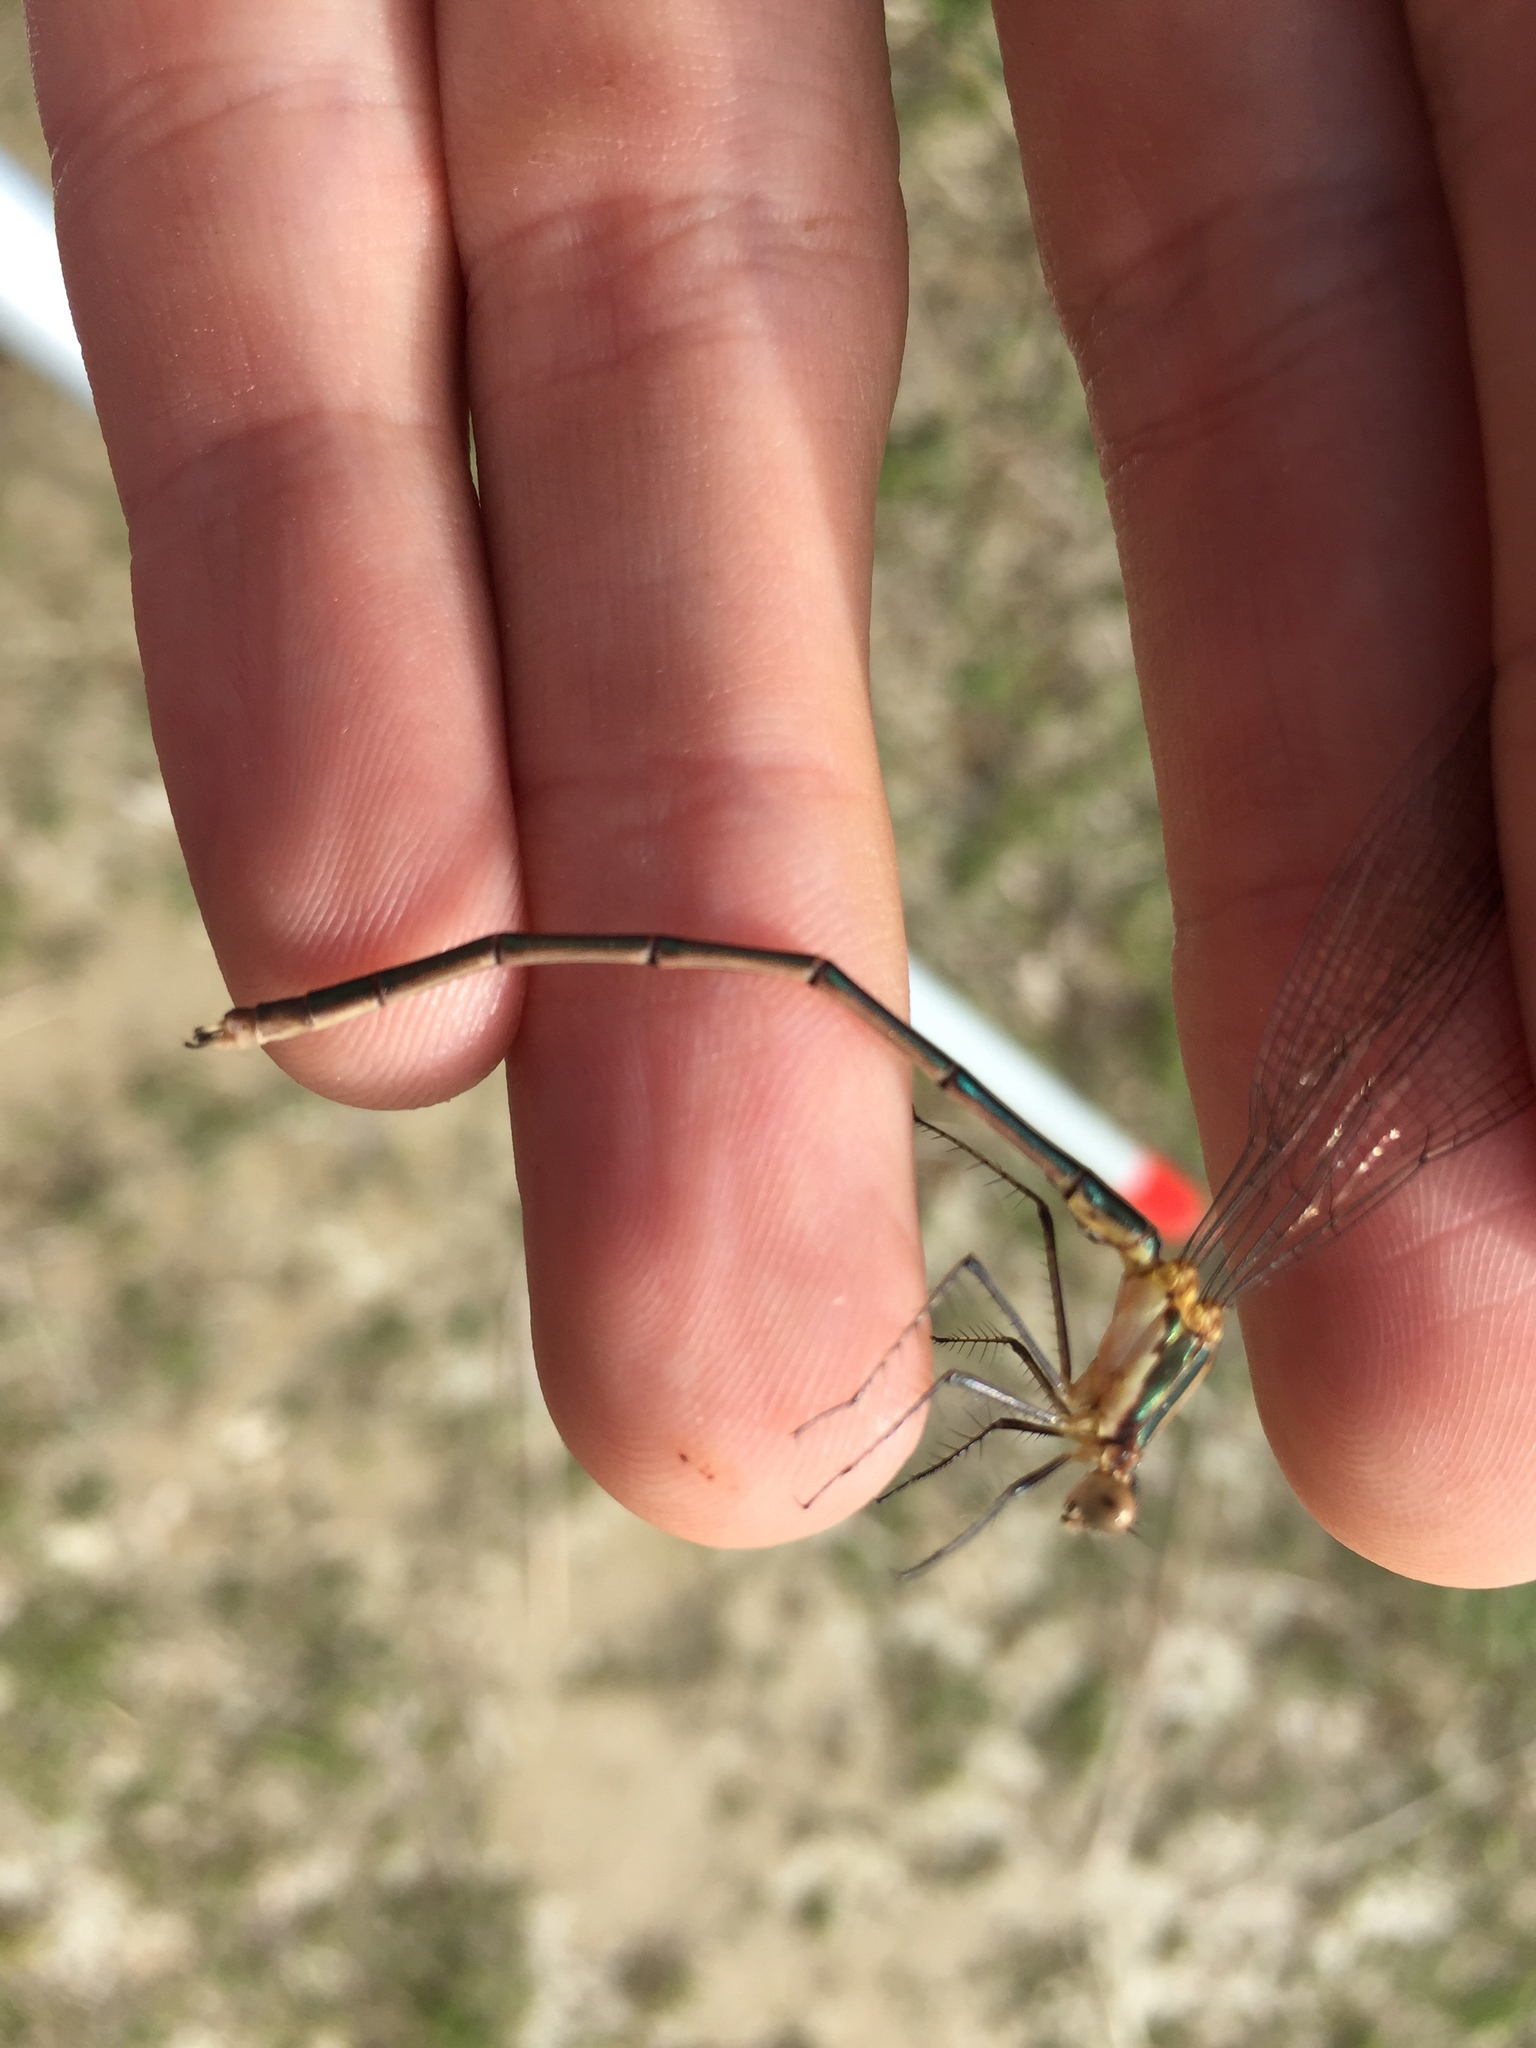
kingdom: Animalia
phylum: Arthropoda
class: Insecta
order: Odonata
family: Lestidae
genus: Lestes
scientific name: Lestes inaequalis
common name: Elegant spreadwing
